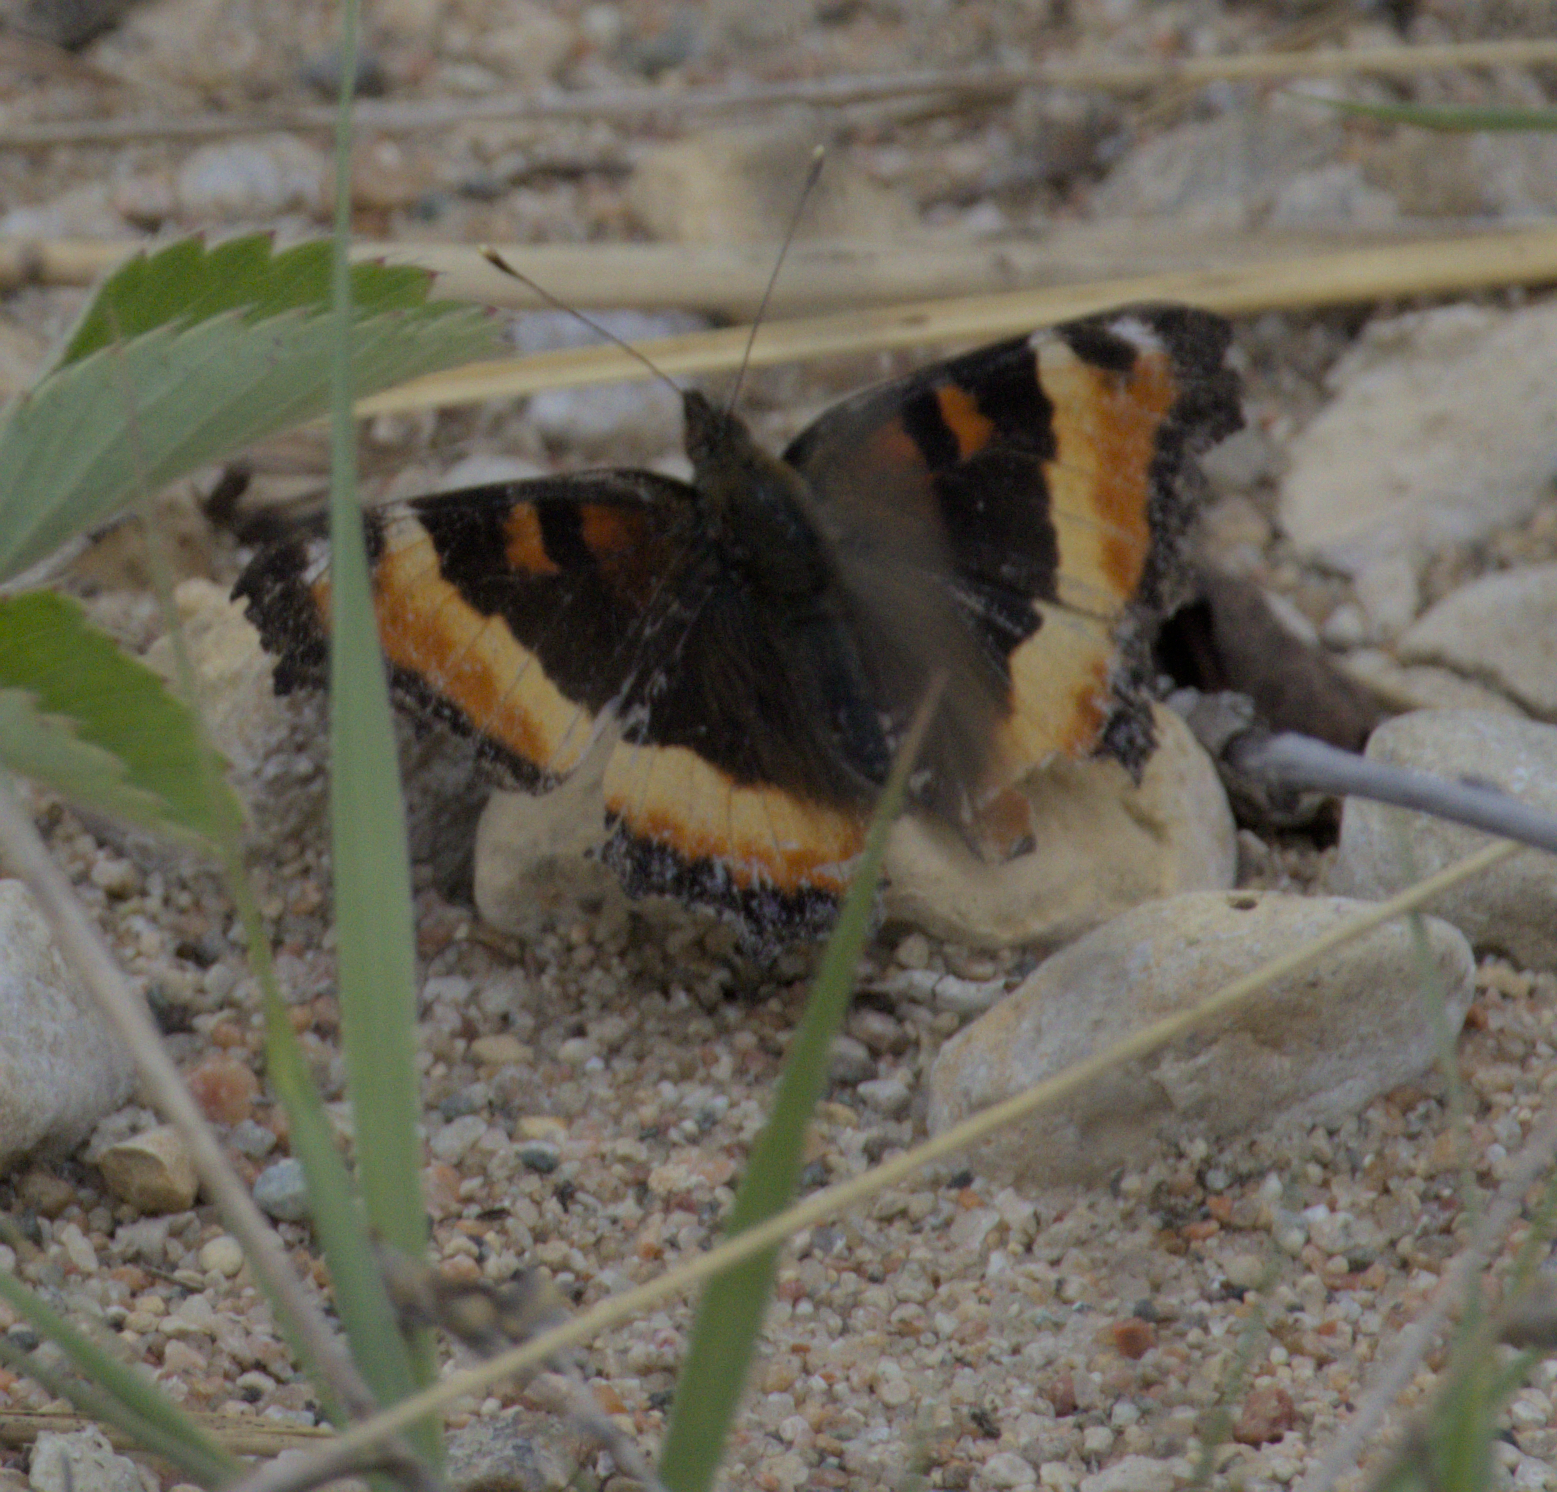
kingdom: Animalia
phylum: Arthropoda
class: Insecta
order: Lepidoptera
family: Nymphalidae
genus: Aglais
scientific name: Aglais milberti
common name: Milbert's tortoiseshell
